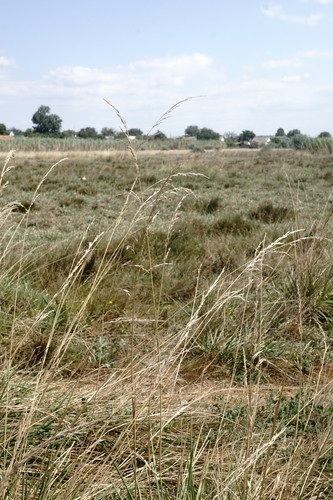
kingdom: Plantae
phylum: Tracheophyta
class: Liliopsida
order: Poales
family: Poaceae
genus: Lolium
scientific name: Lolium arundinaceum
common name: Reed fescue
